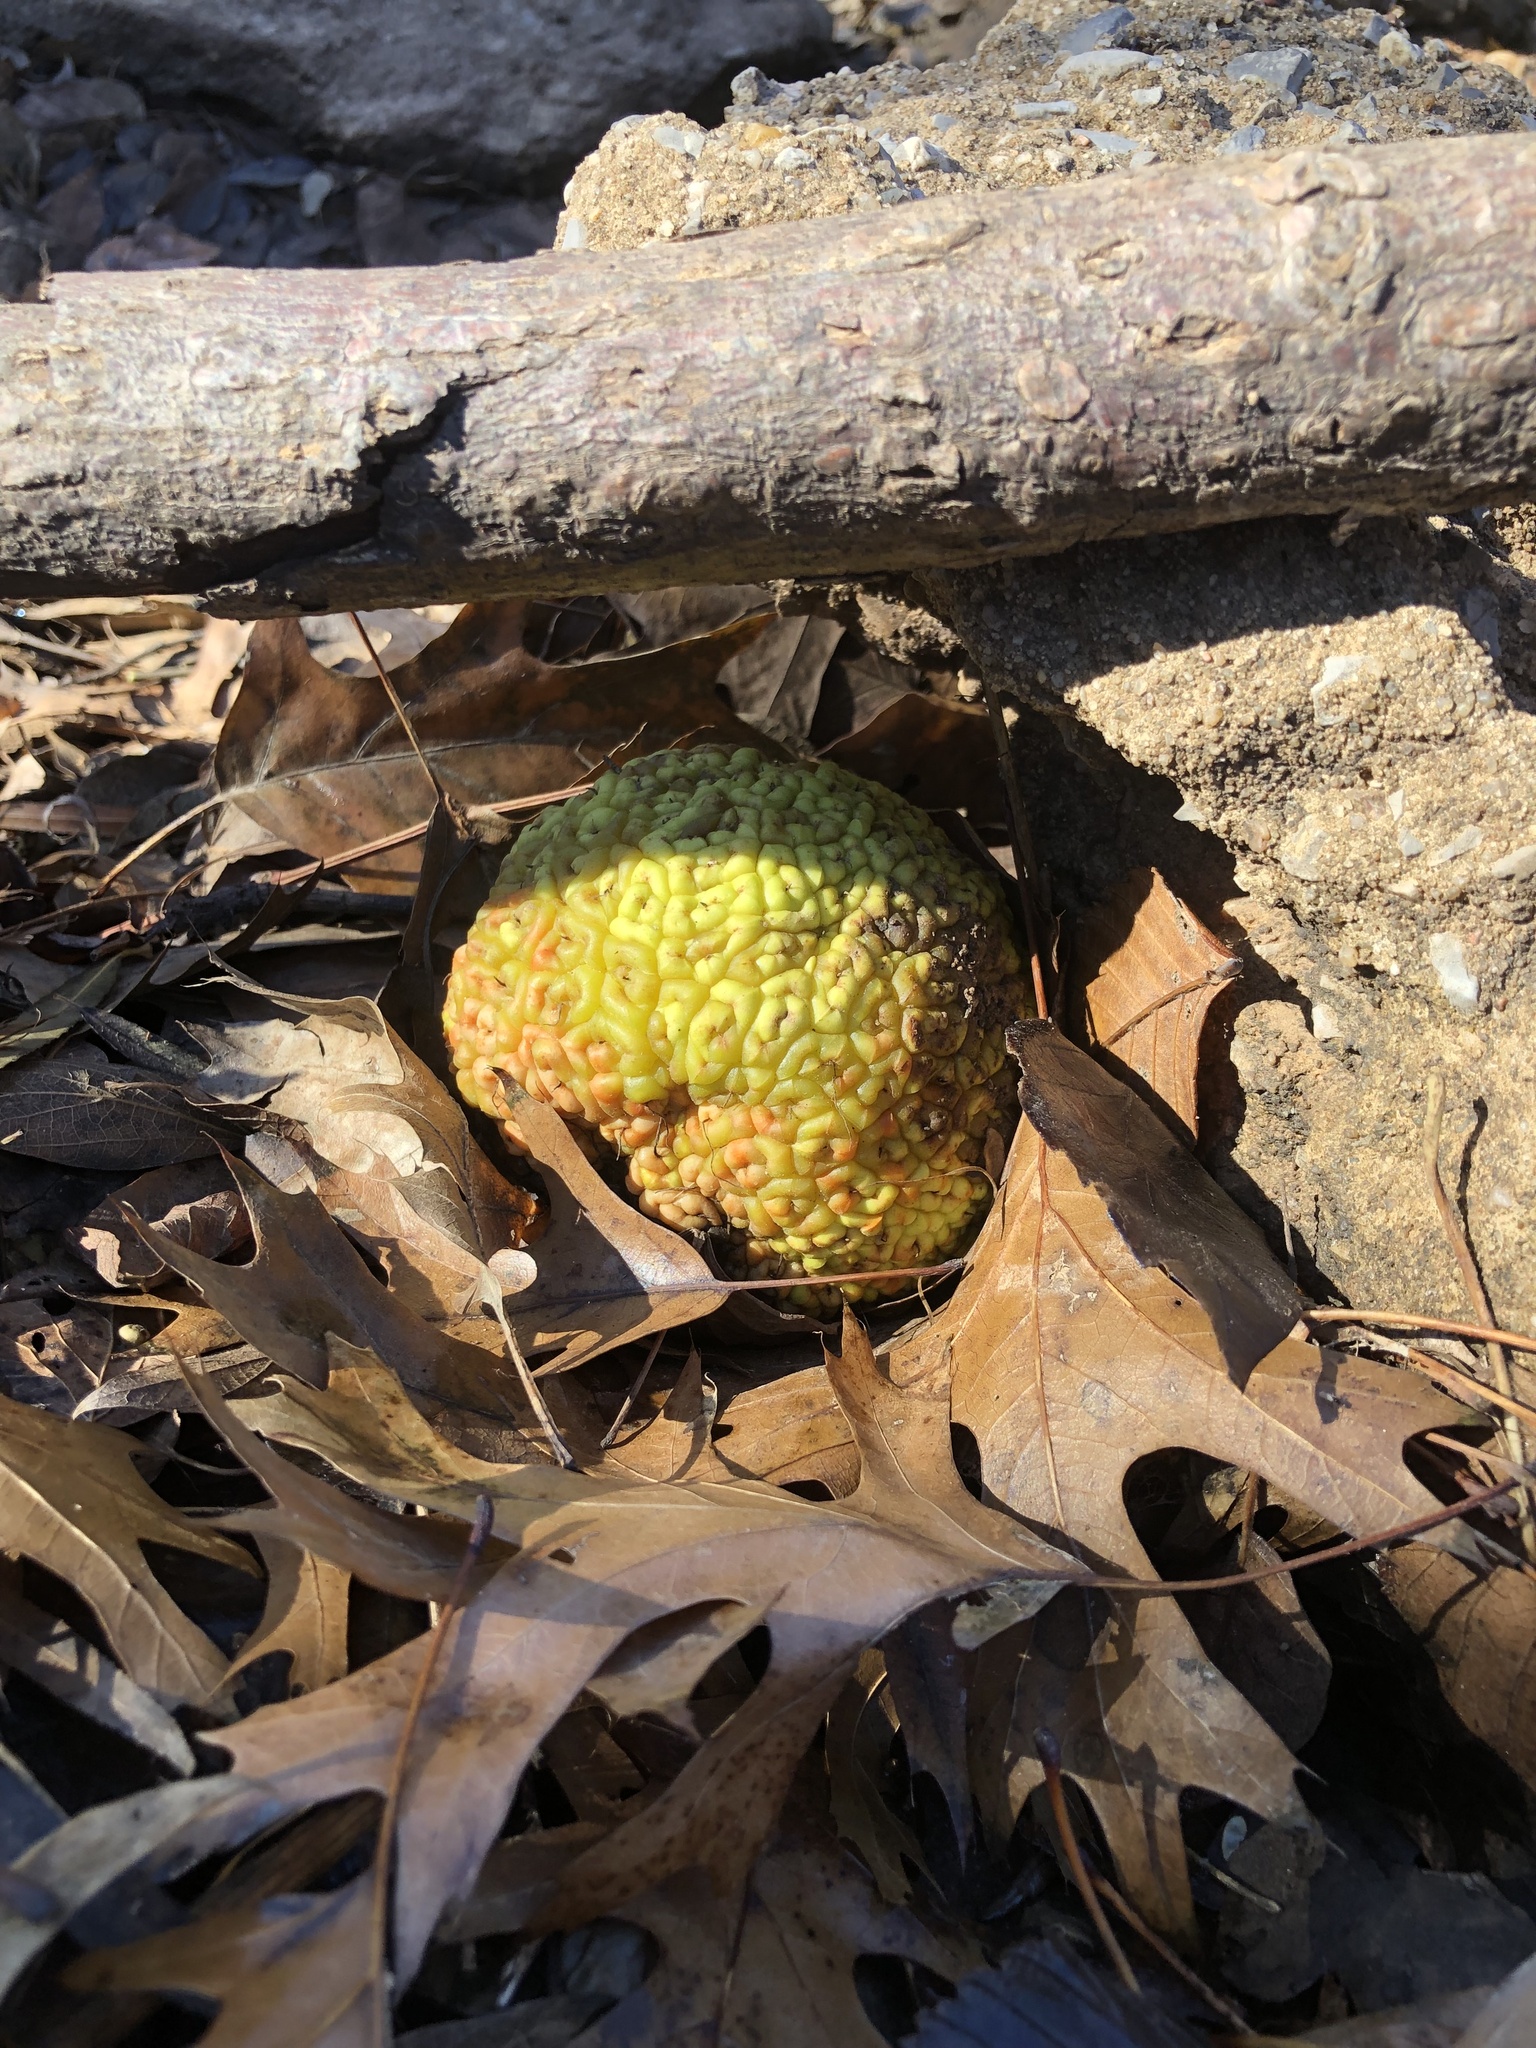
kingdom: Plantae
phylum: Tracheophyta
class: Magnoliopsida
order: Rosales
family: Moraceae
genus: Maclura
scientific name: Maclura pomifera
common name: Osage-orange
